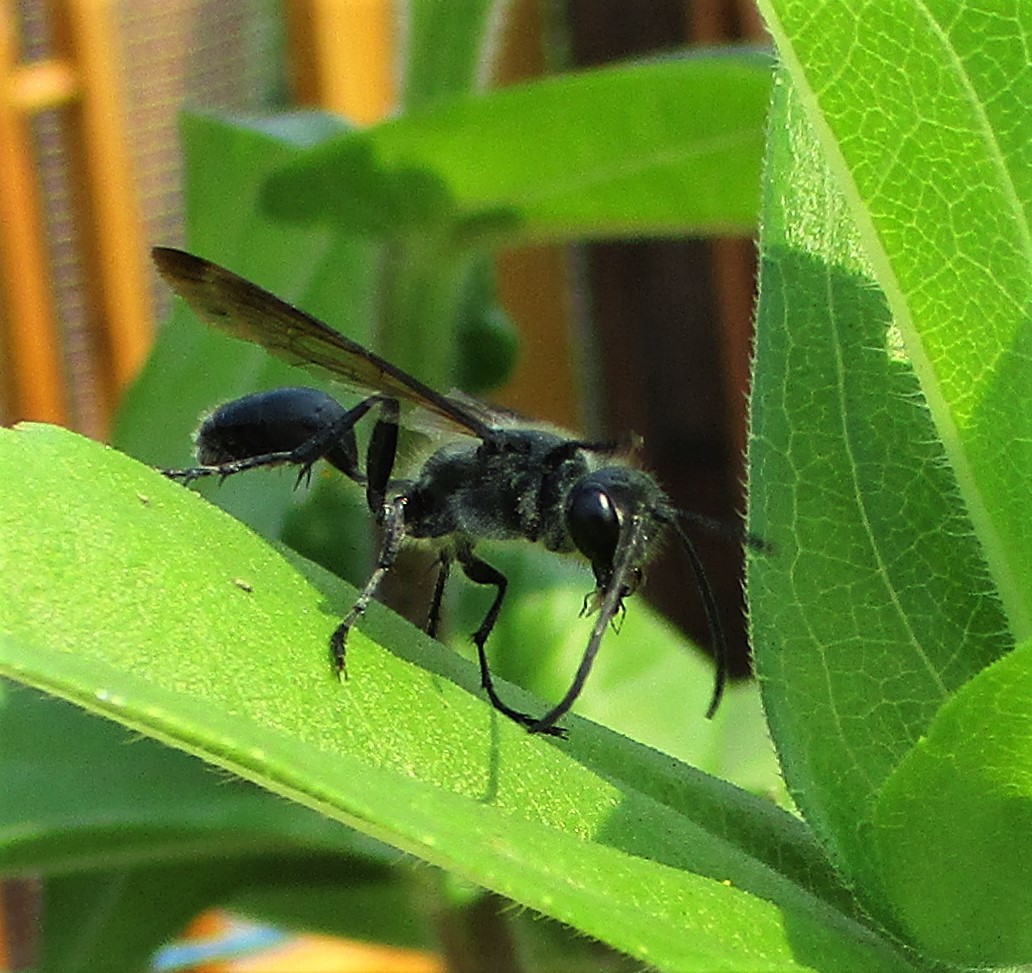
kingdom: Animalia
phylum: Arthropoda
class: Insecta
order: Hymenoptera
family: Sphecidae
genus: Isodontia
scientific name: Isodontia mexicana
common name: Mud dauber
